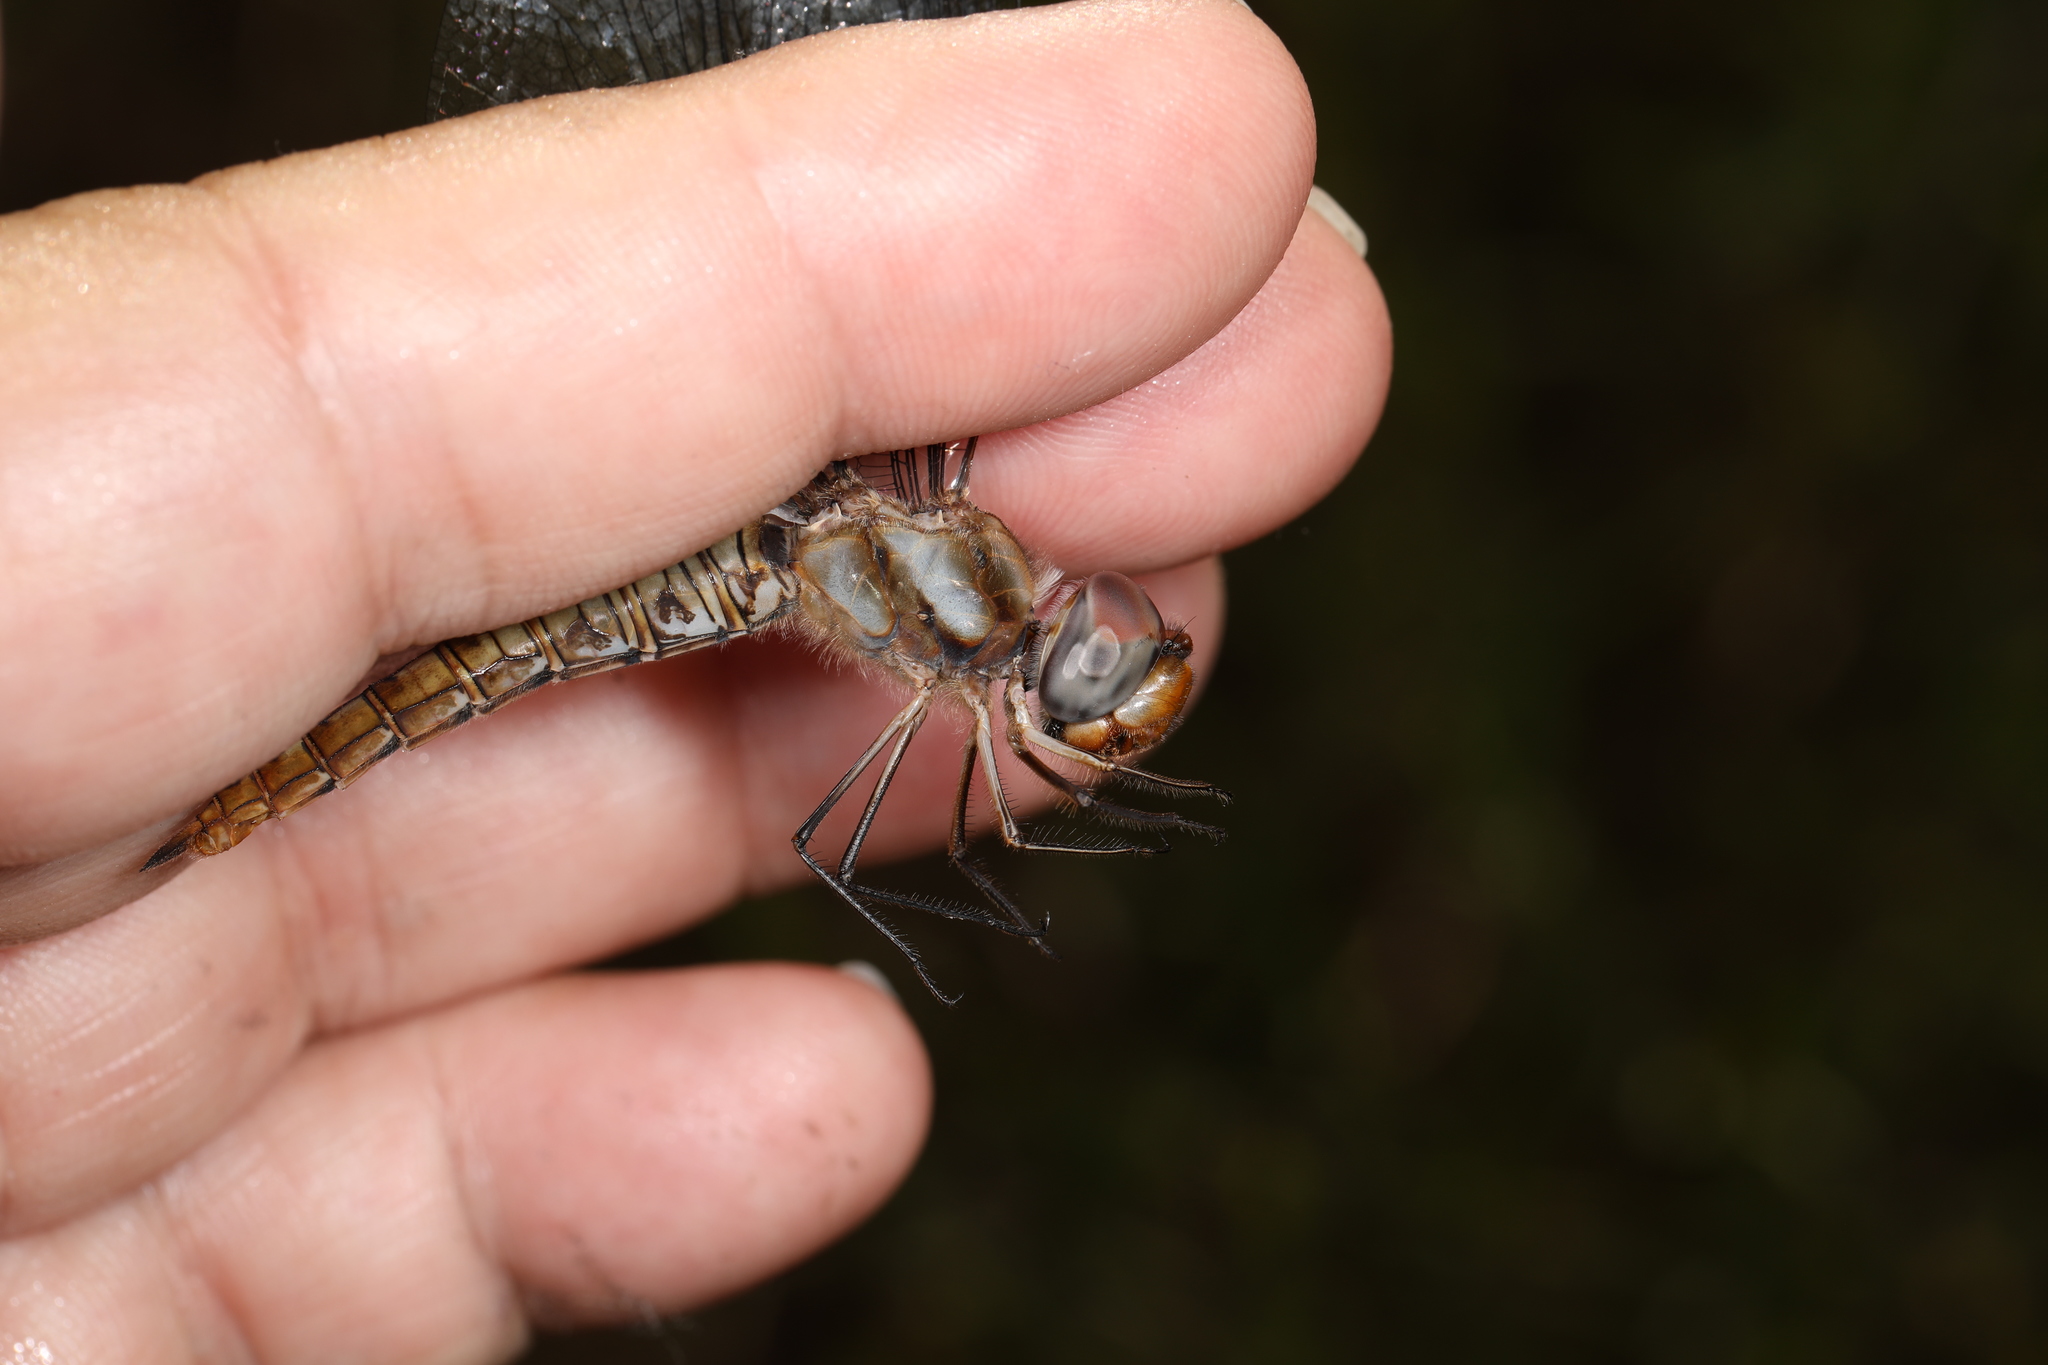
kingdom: Animalia
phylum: Arthropoda
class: Insecta
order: Odonata
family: Libellulidae
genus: Pantala
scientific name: Pantala hymenaea
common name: Spot-winged glider
